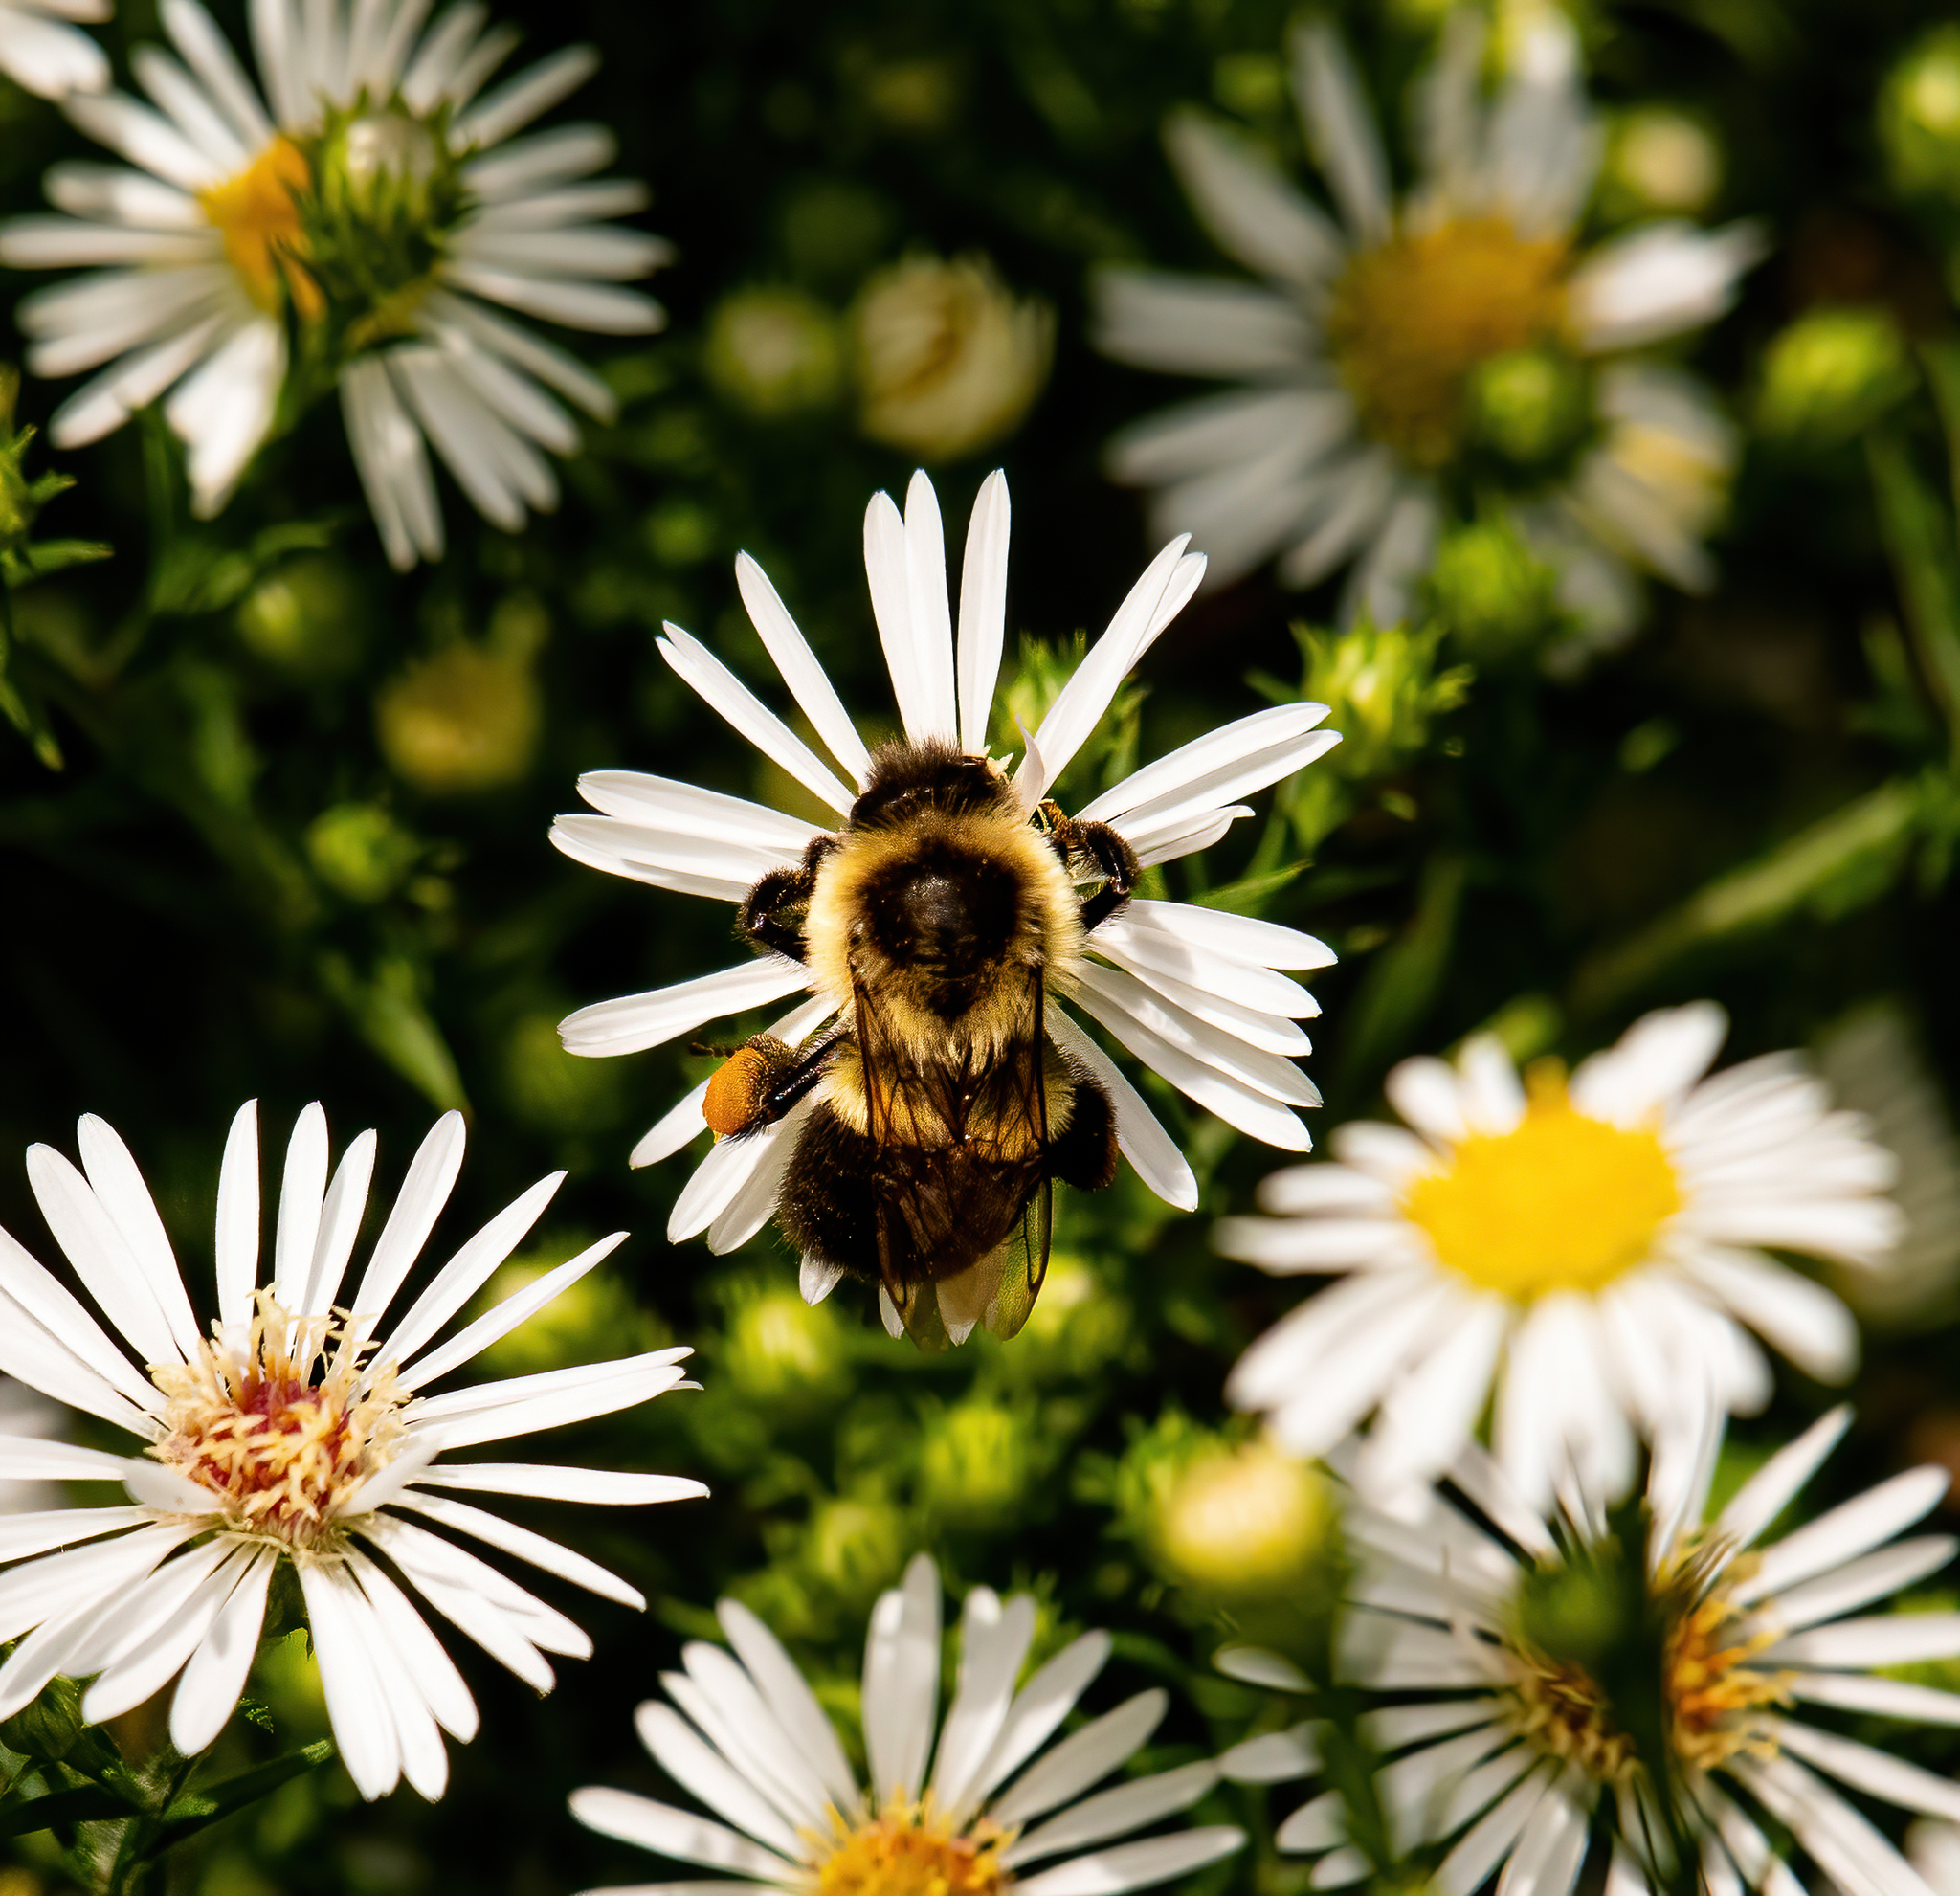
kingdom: Animalia
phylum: Arthropoda
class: Insecta
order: Hymenoptera
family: Apidae
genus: Bombus
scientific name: Bombus impatiens
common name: Common eastern bumble bee
